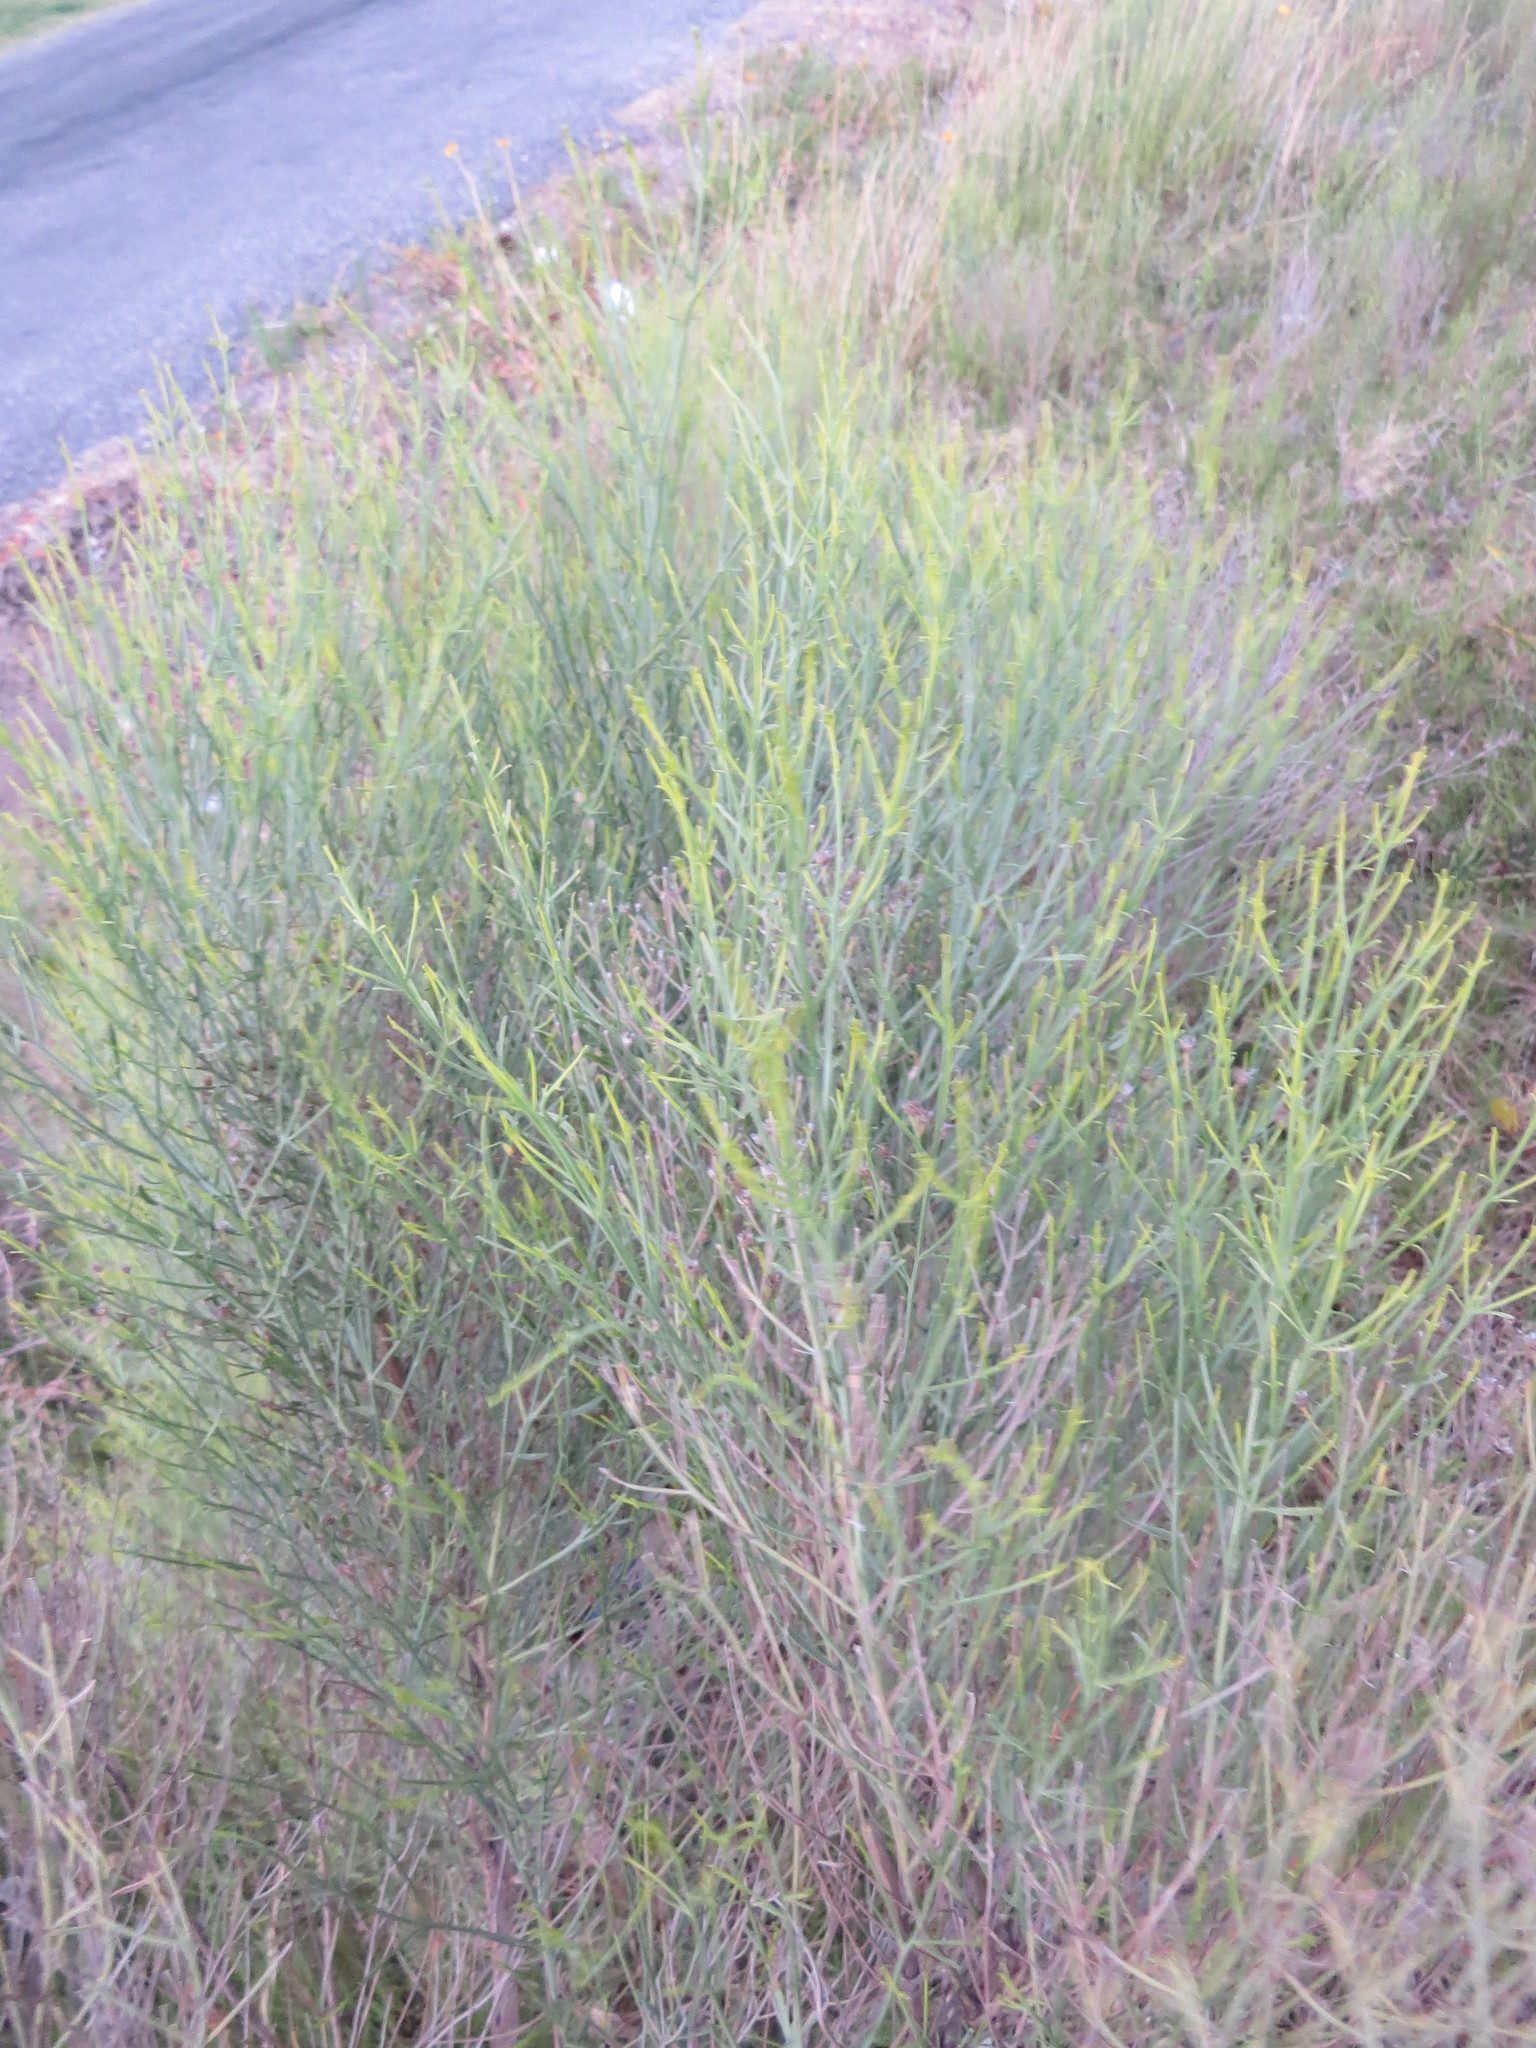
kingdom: Plantae
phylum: Tracheophyta
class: Magnoliopsida
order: Asterales
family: Asteraceae
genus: Baccharis
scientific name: Baccharis articulata
